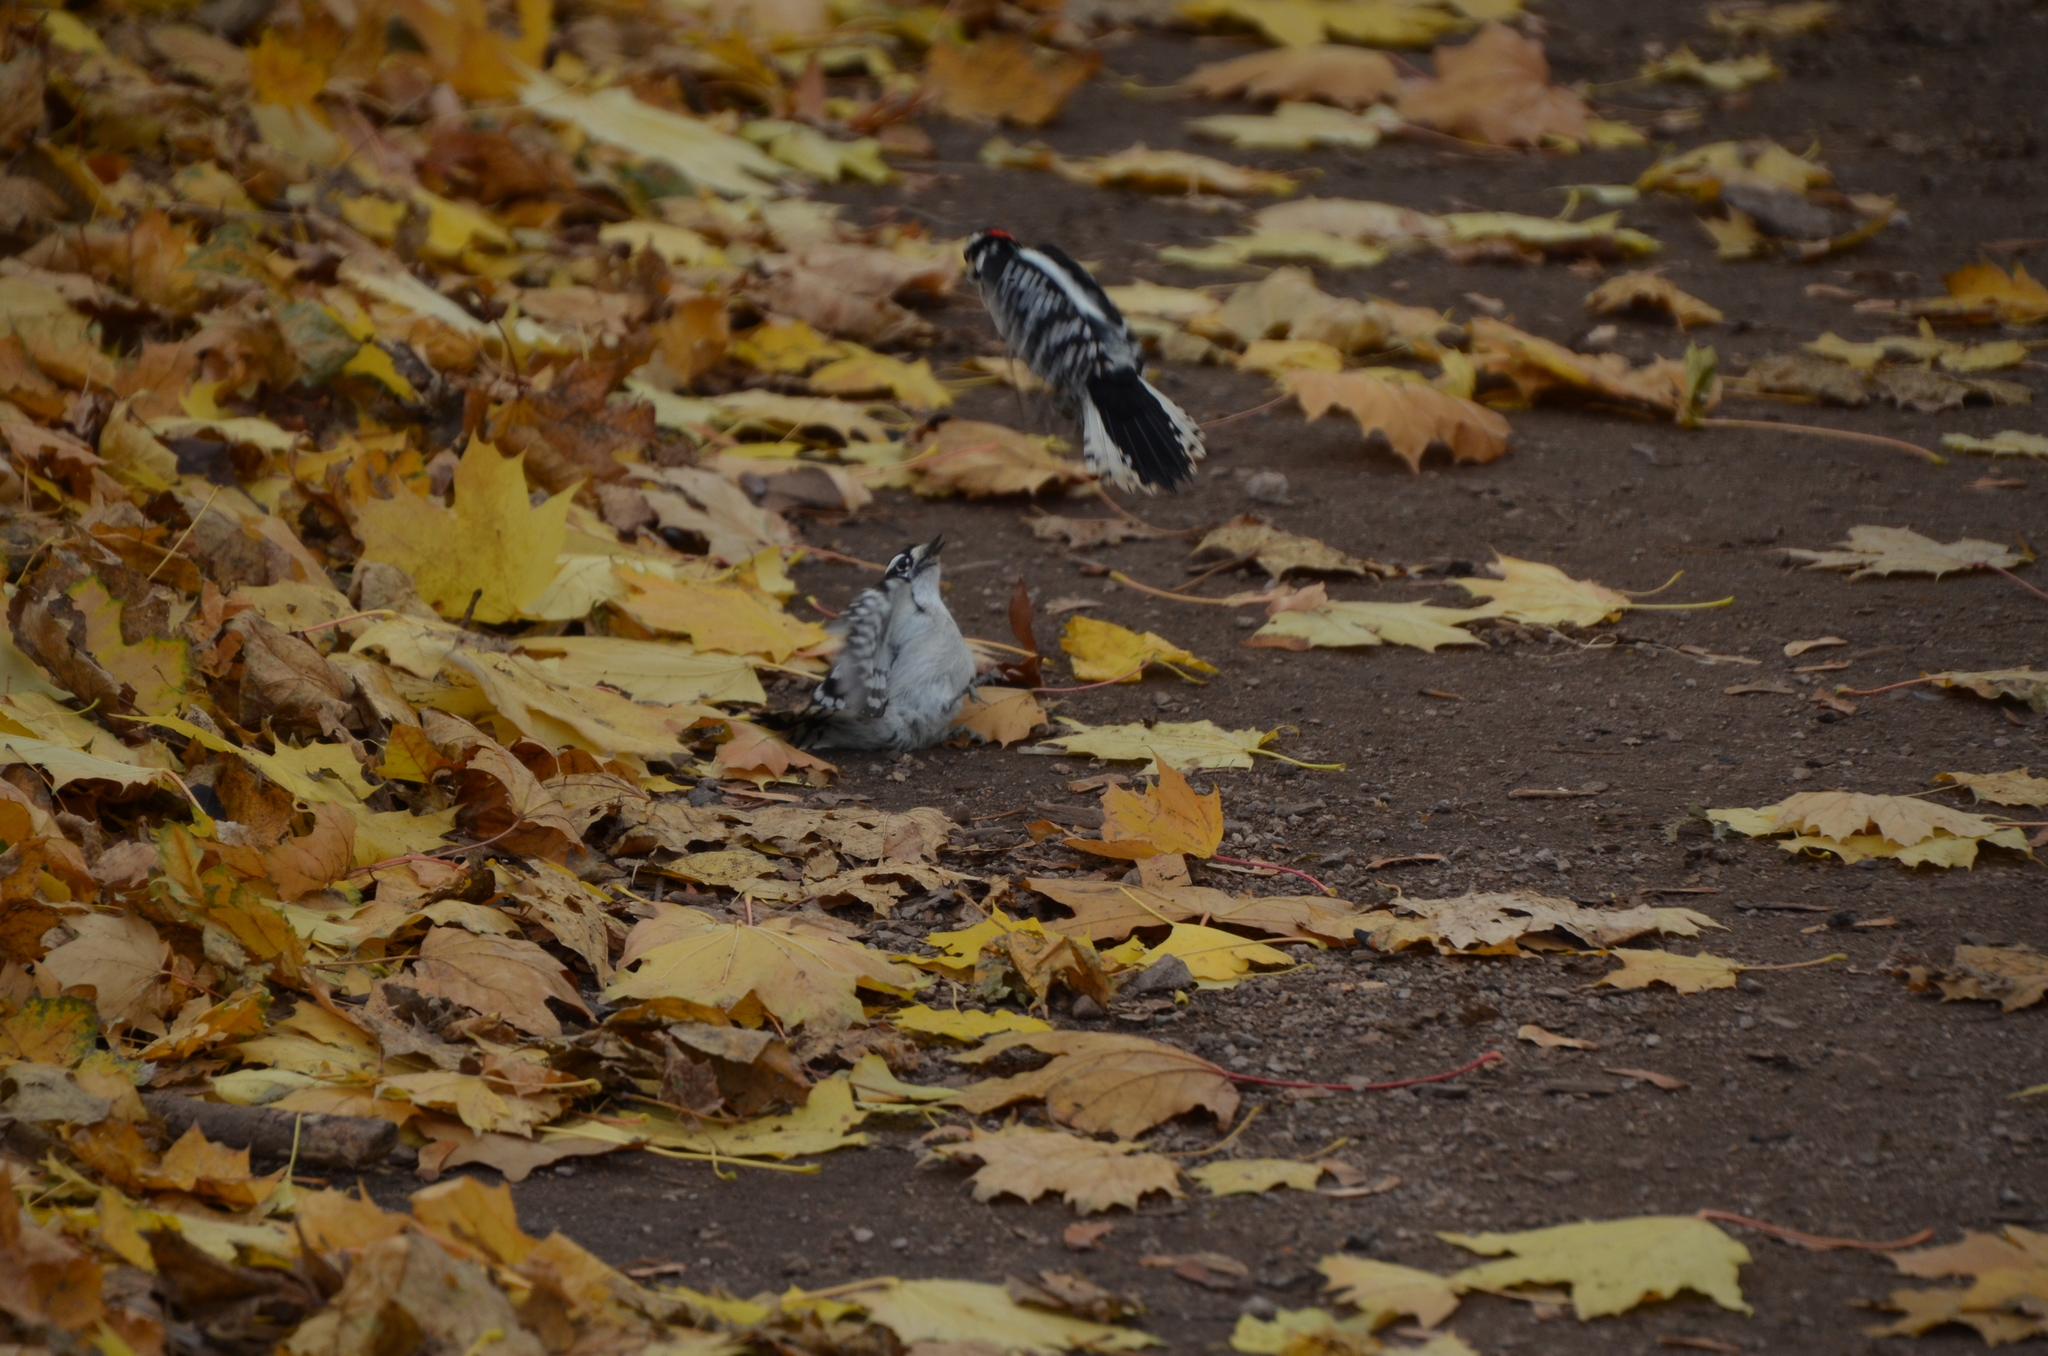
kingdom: Animalia
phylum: Chordata
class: Aves
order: Piciformes
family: Picidae
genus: Dryobates
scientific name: Dryobates pubescens
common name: Downy woodpecker
